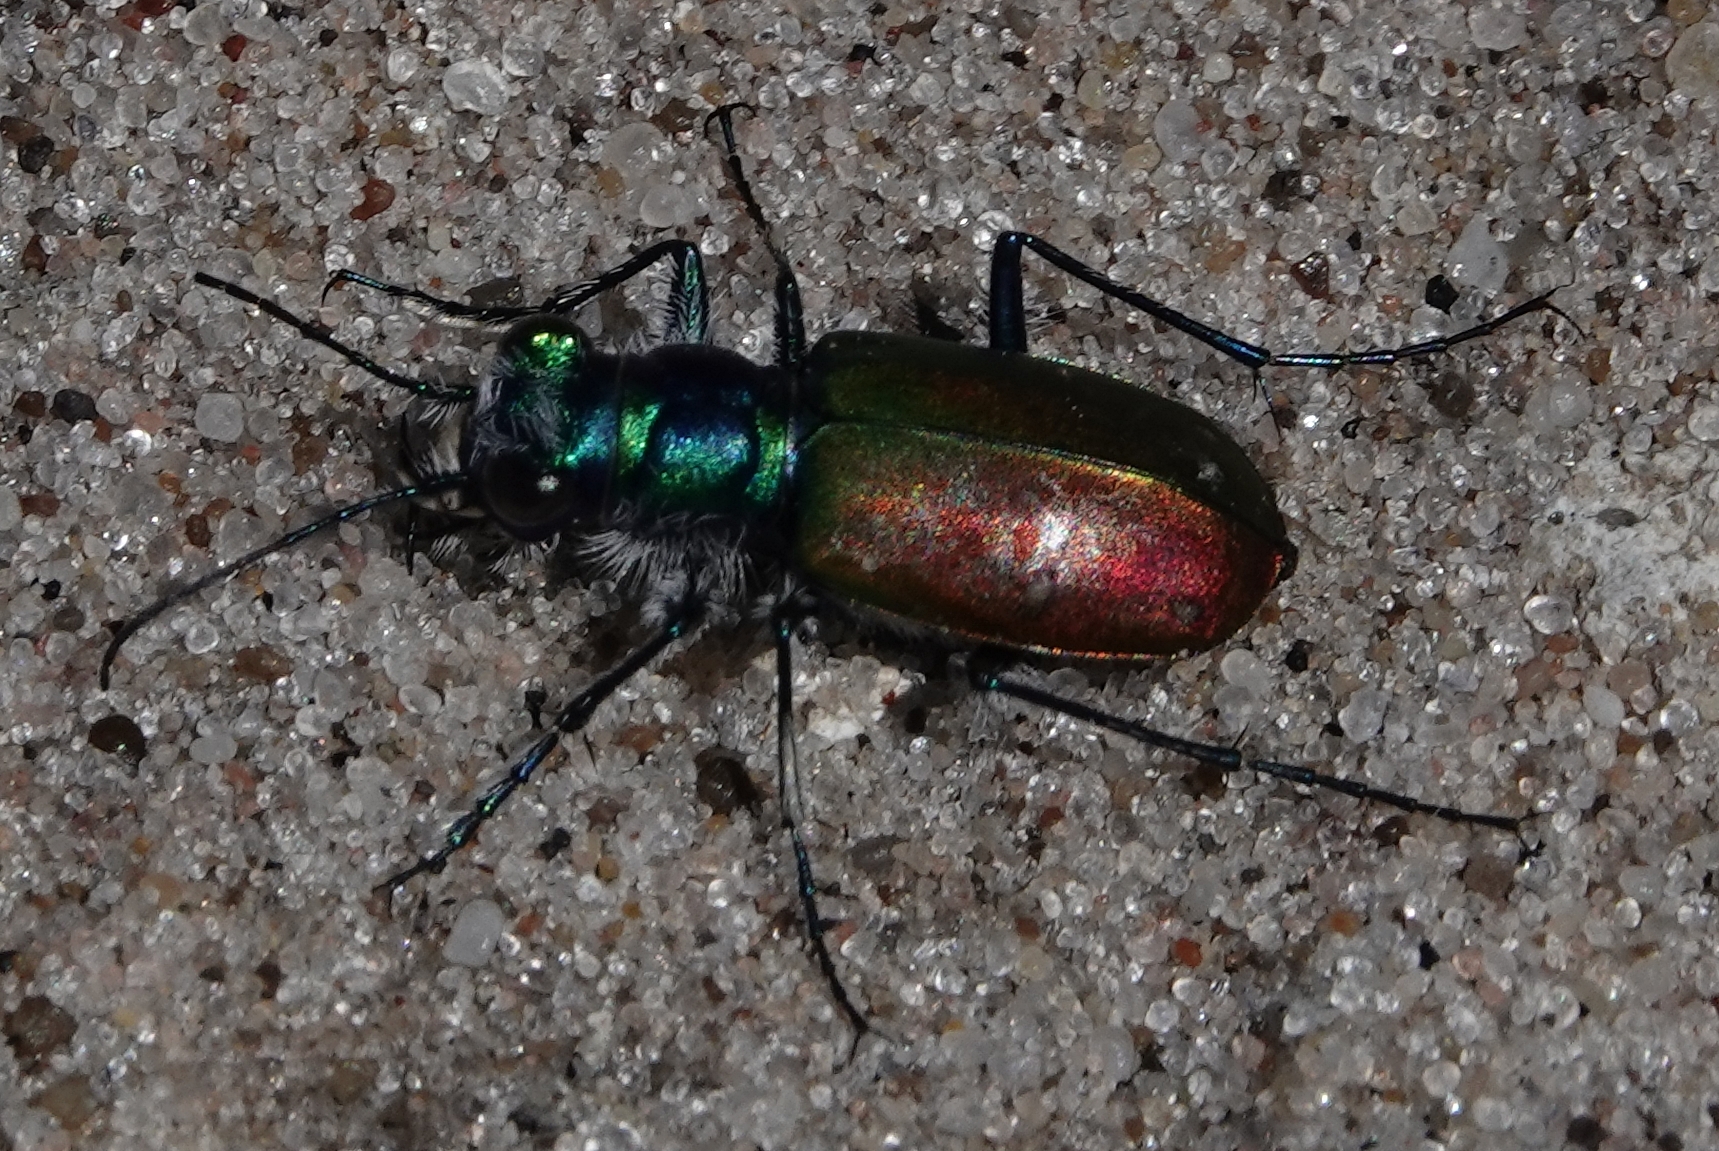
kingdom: Animalia
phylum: Arthropoda
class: Insecta
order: Coleoptera
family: Carabidae
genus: Cicindela
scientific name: Cicindela scutellaris
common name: Festive tiger beetle
